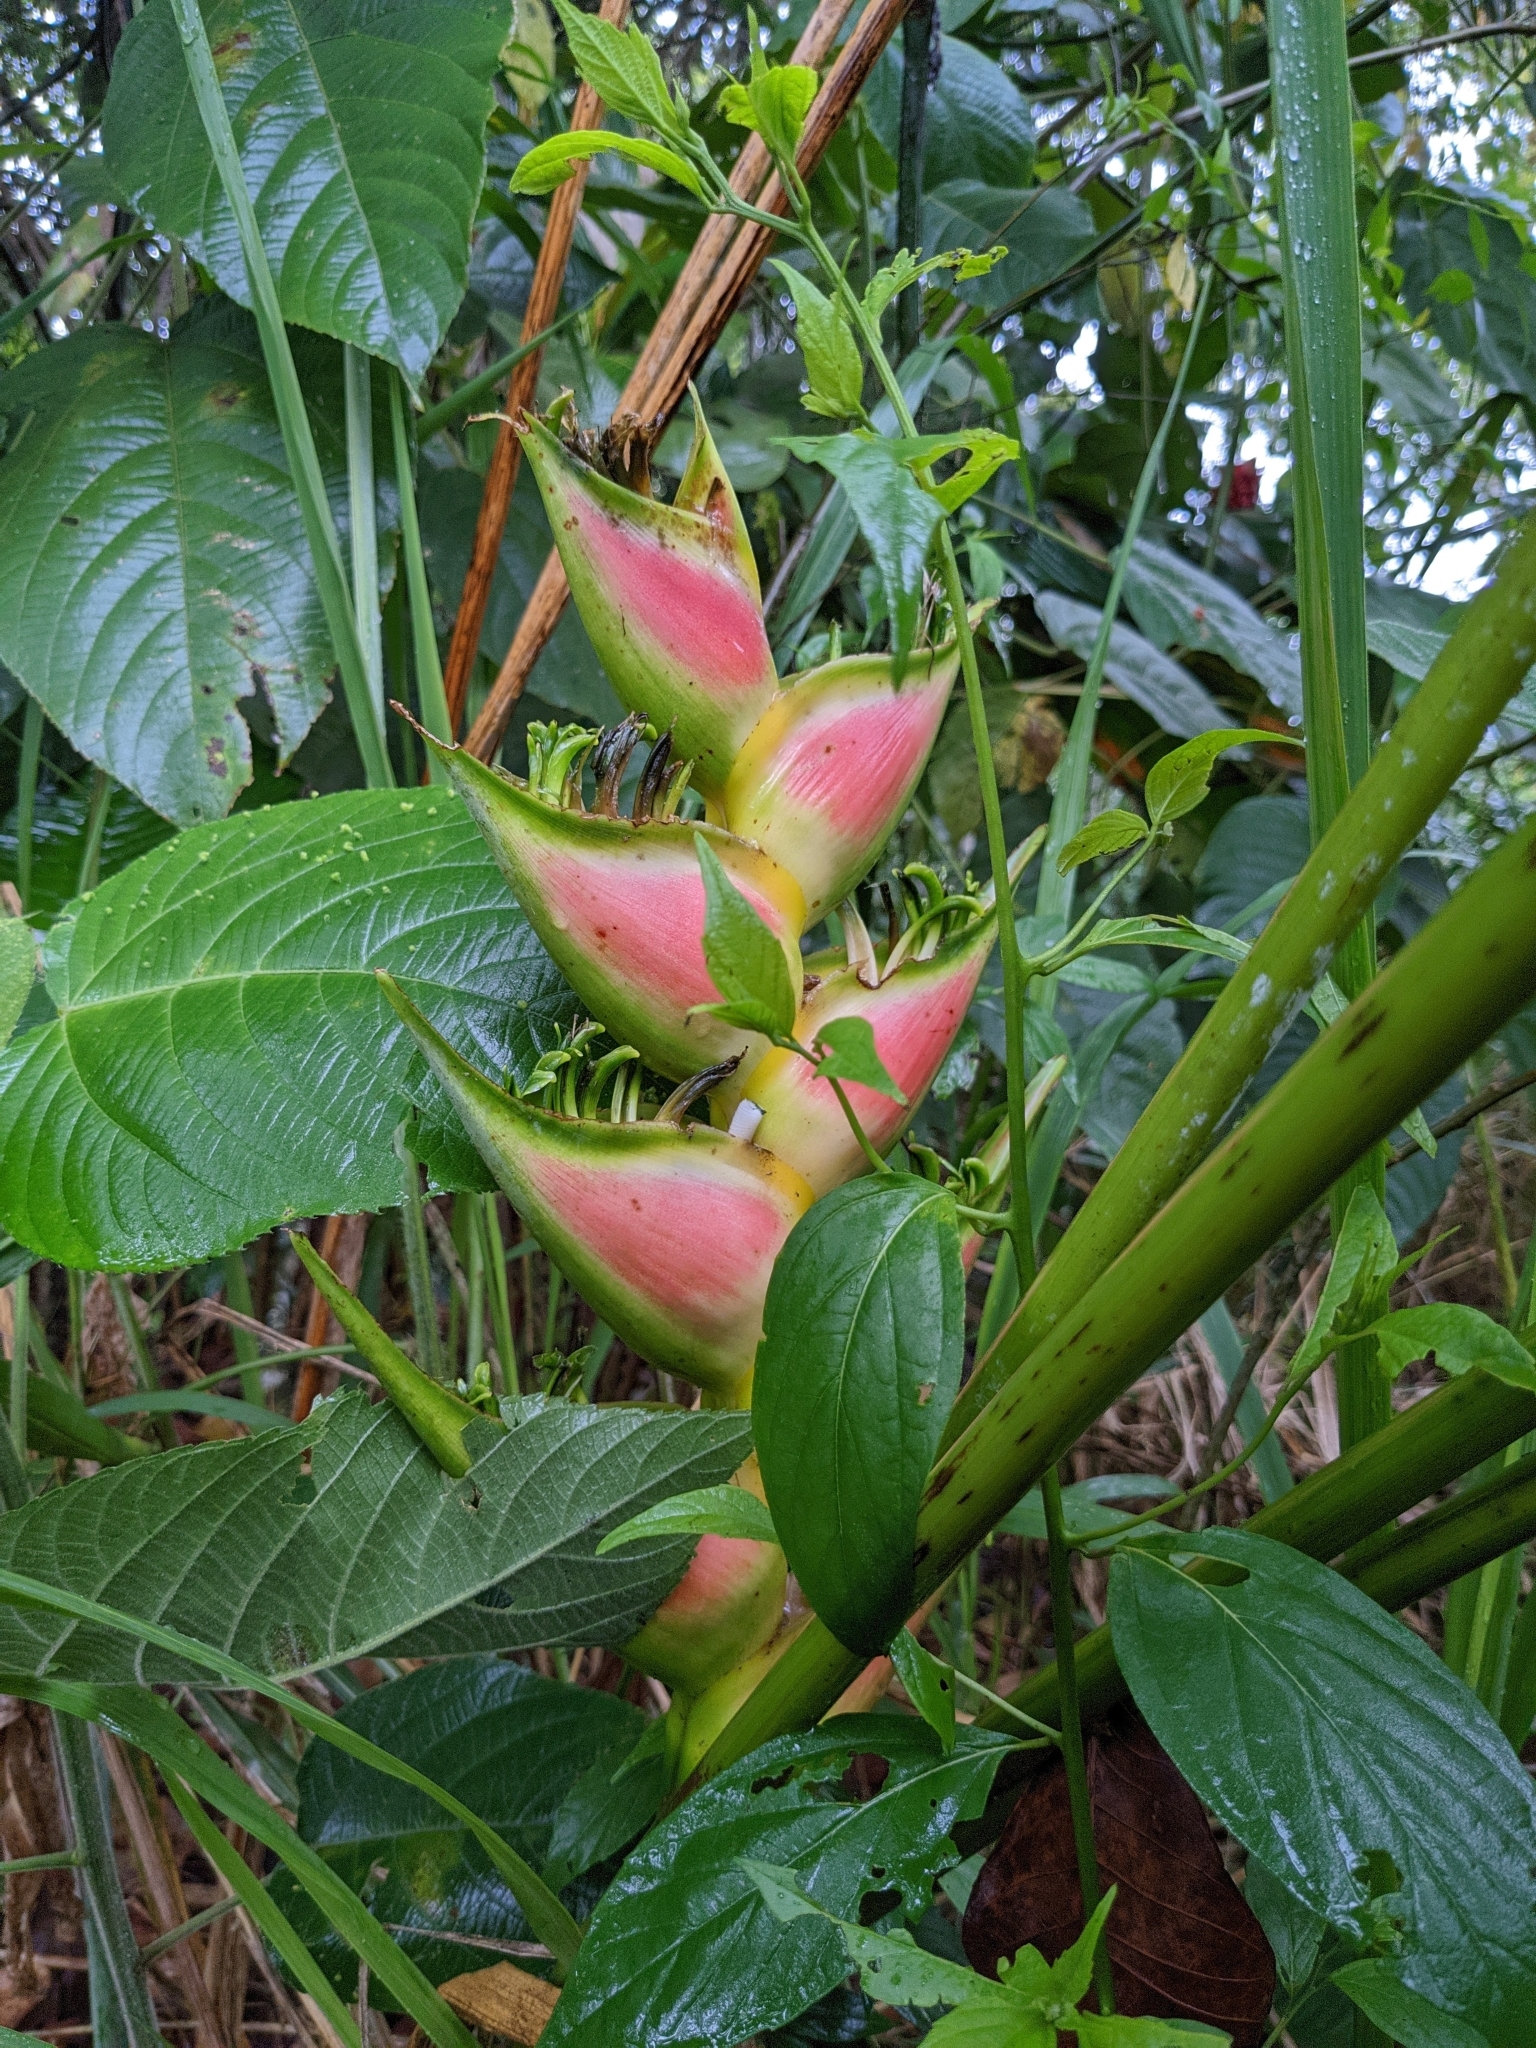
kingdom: Plantae
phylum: Tracheophyta
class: Liliopsida
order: Zingiberales
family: Heliconiaceae
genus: Heliconia
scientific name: Heliconia wagneriana
